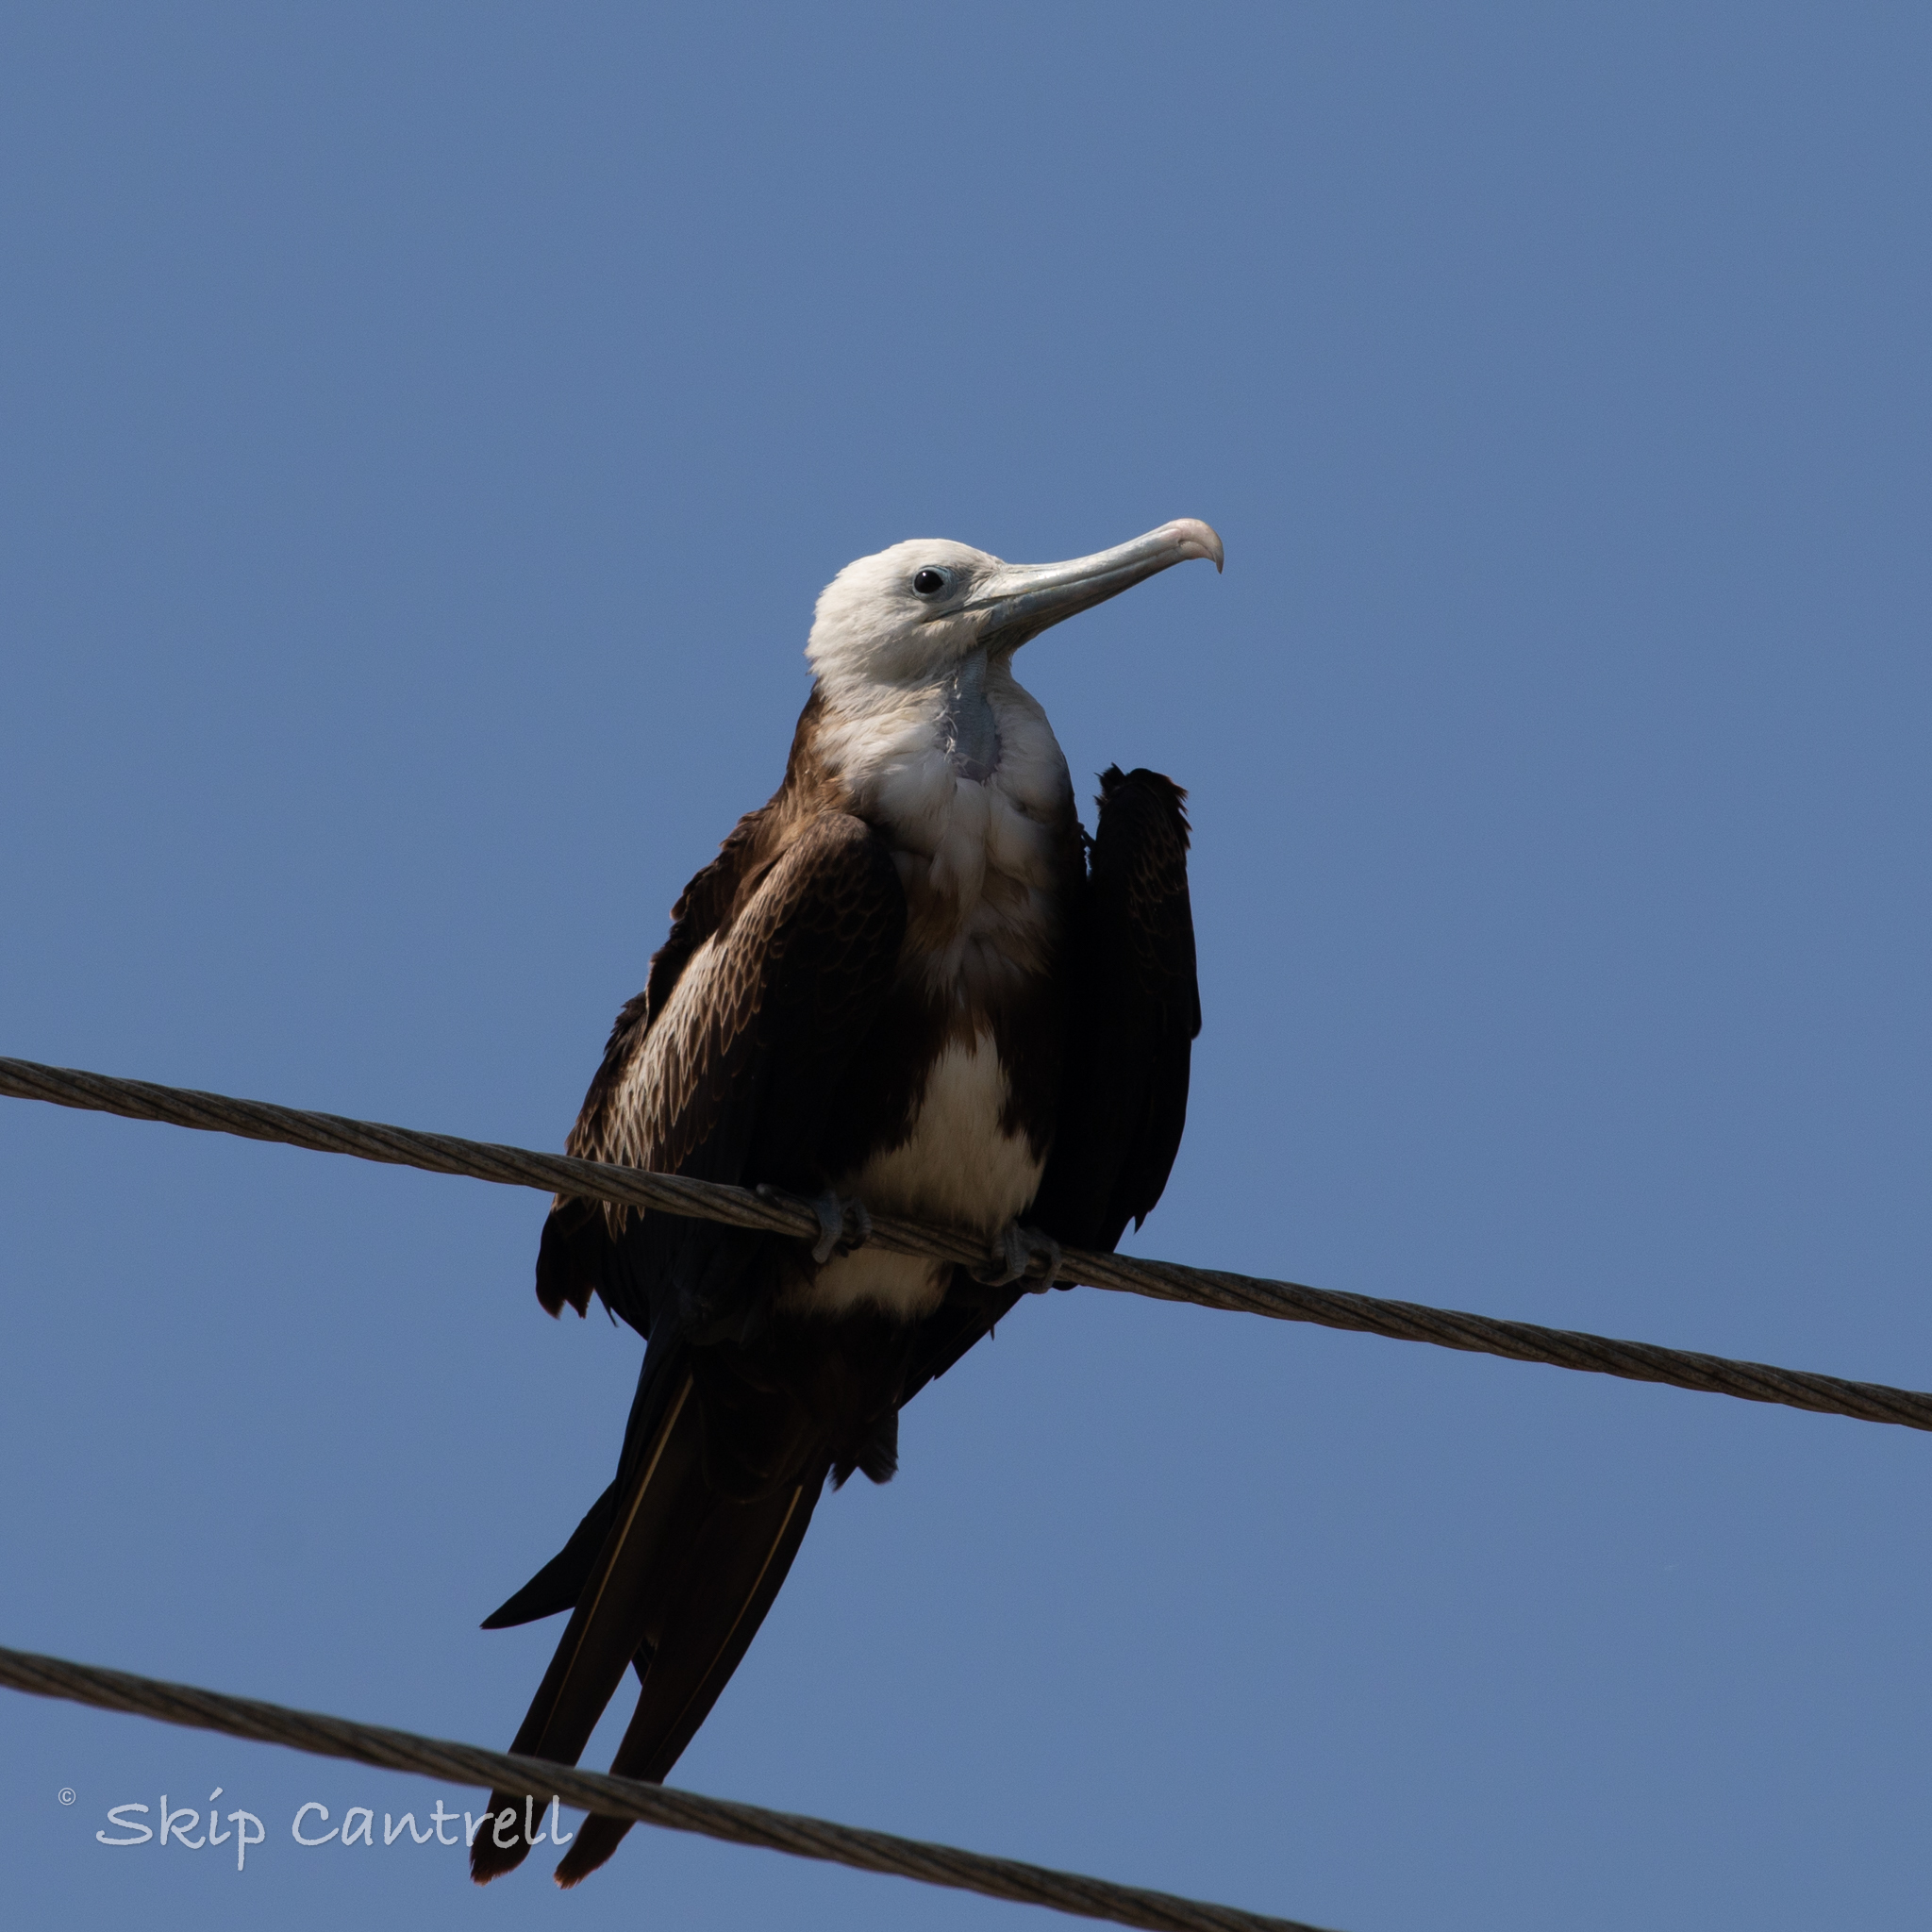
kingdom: Animalia
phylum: Chordata
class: Aves
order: Suliformes
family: Fregatidae
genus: Fregata
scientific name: Fregata magnificens
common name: Magnificent frigatebird
